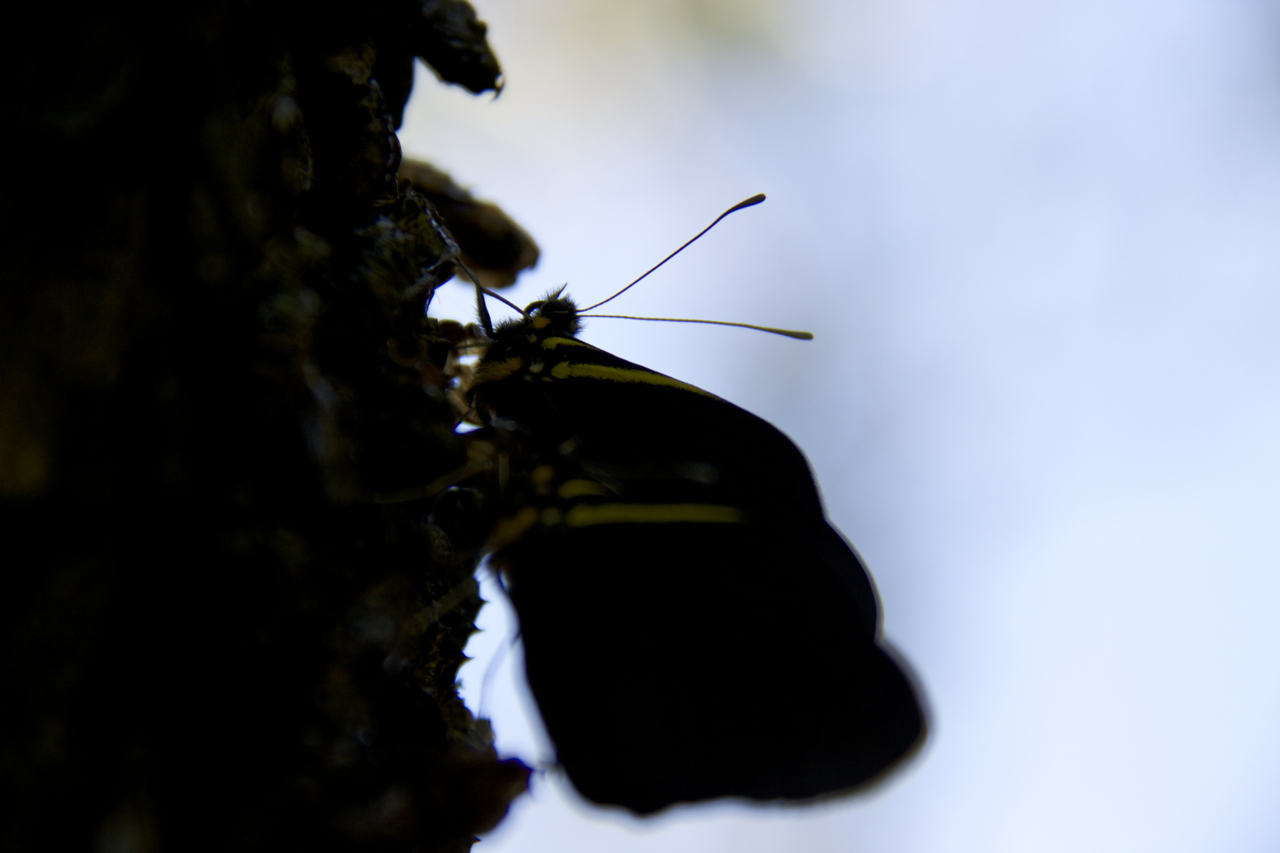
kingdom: Animalia
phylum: Arthropoda
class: Insecta
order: Lepidoptera
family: Pieridae
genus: Pereute
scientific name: Pereute charops
